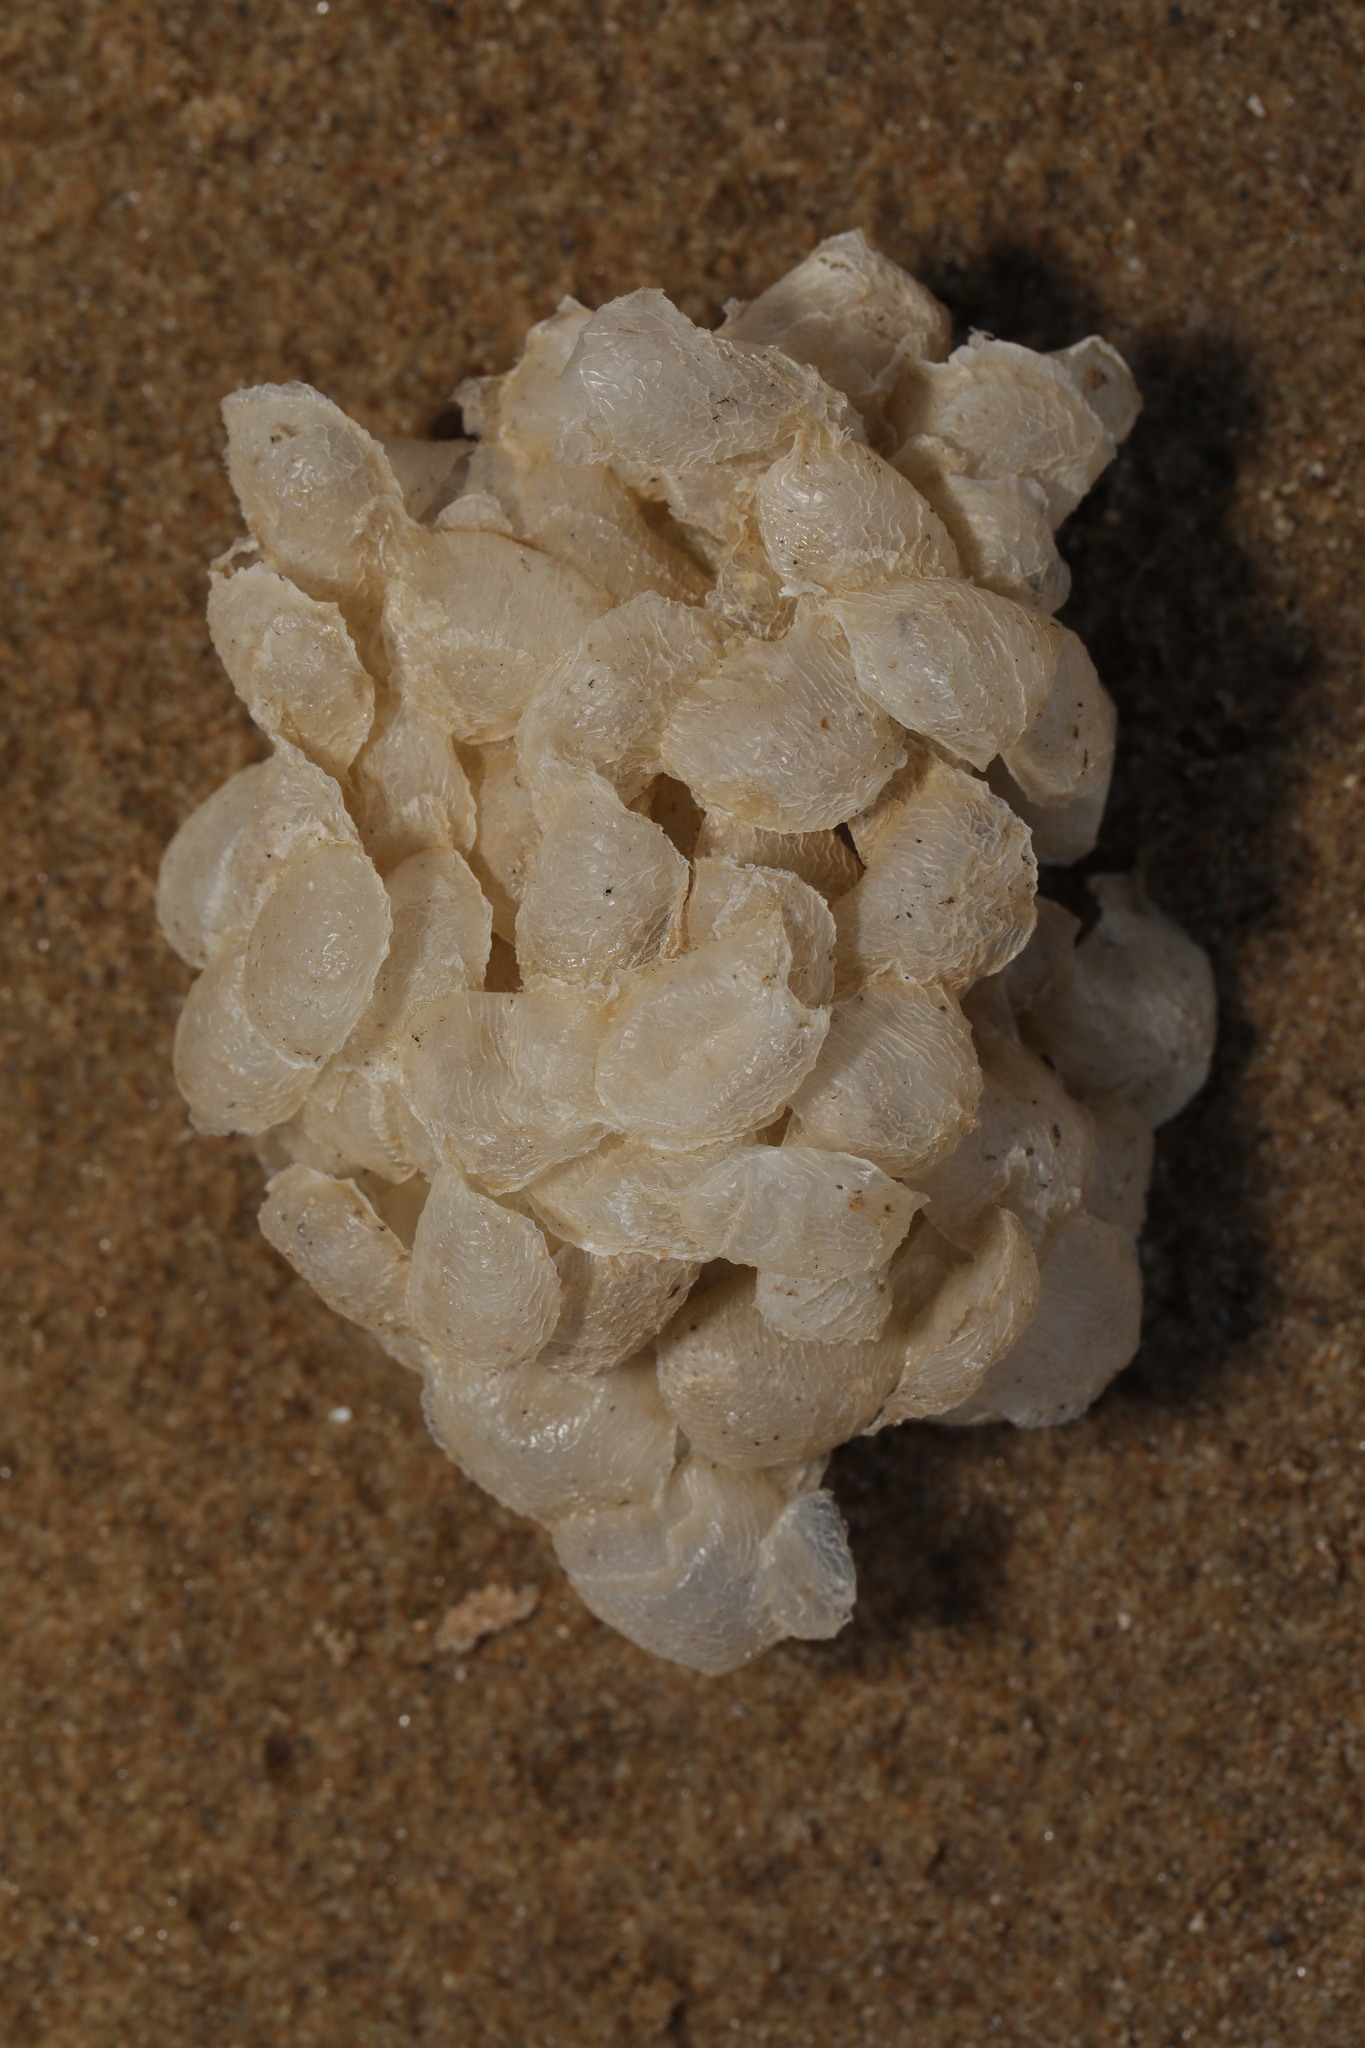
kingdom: Animalia
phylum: Mollusca
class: Gastropoda
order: Neogastropoda
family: Buccinidae
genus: Buccinum
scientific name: Buccinum undatum
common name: Common whelk
